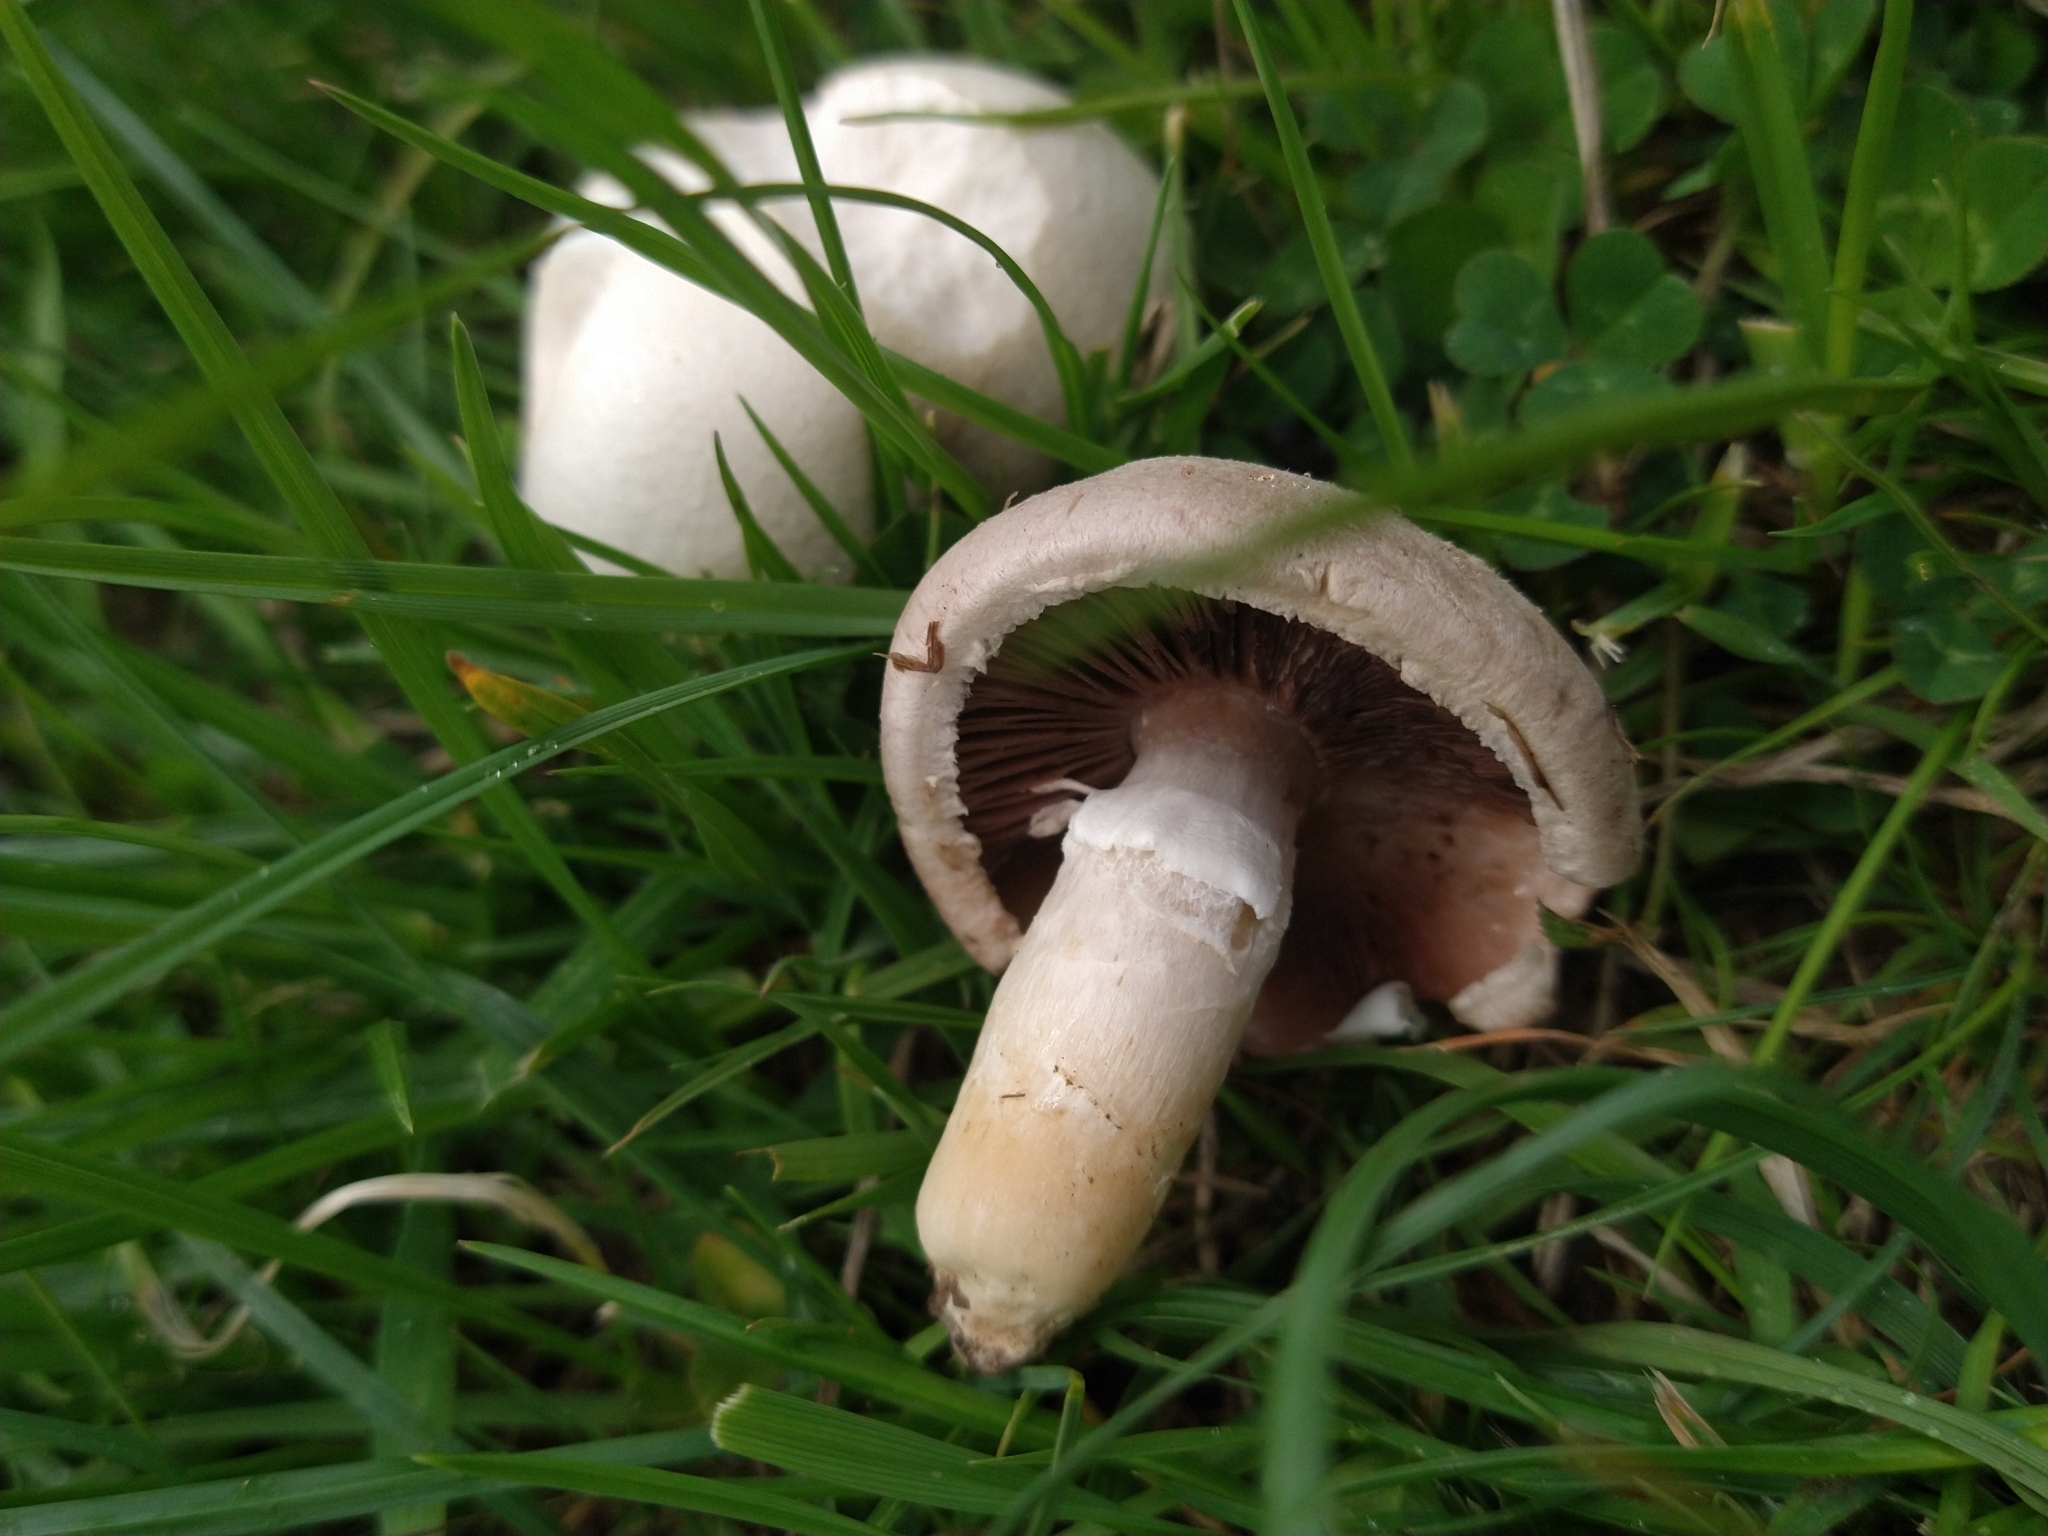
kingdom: Fungi
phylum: Basidiomycota
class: Agaricomycetes
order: Agaricales
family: Agaricaceae
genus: Agaricus
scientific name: Agaricus arvensis
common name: Horse mushroom
